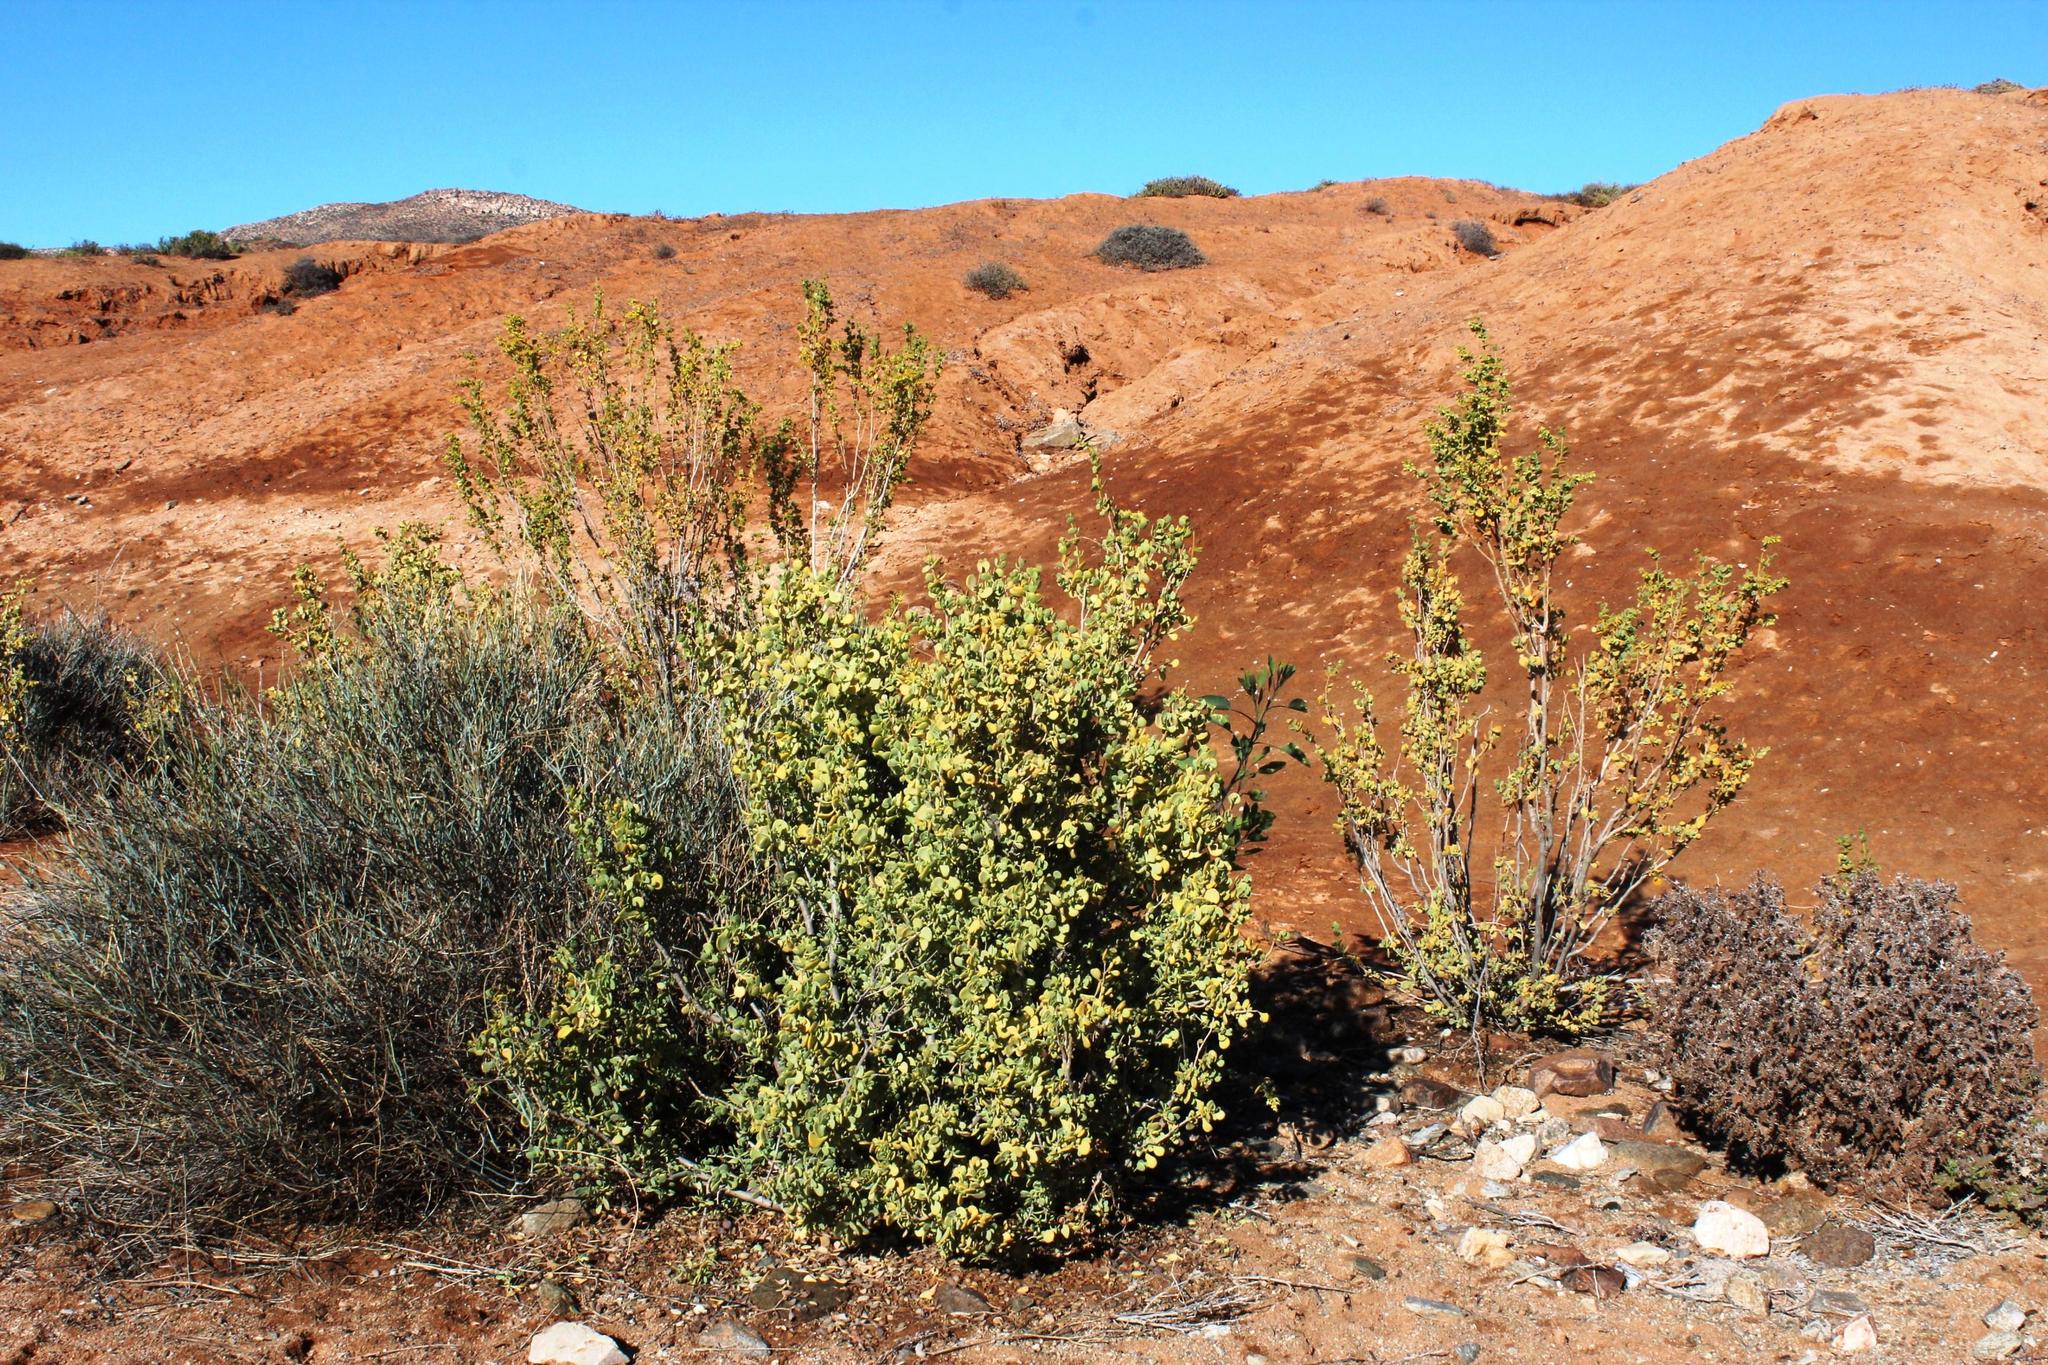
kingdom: Plantae
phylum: Tracheophyta
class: Magnoliopsida
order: Zygophyllales
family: Zygophyllaceae
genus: Tetraena
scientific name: Tetraena prismatocarpa
